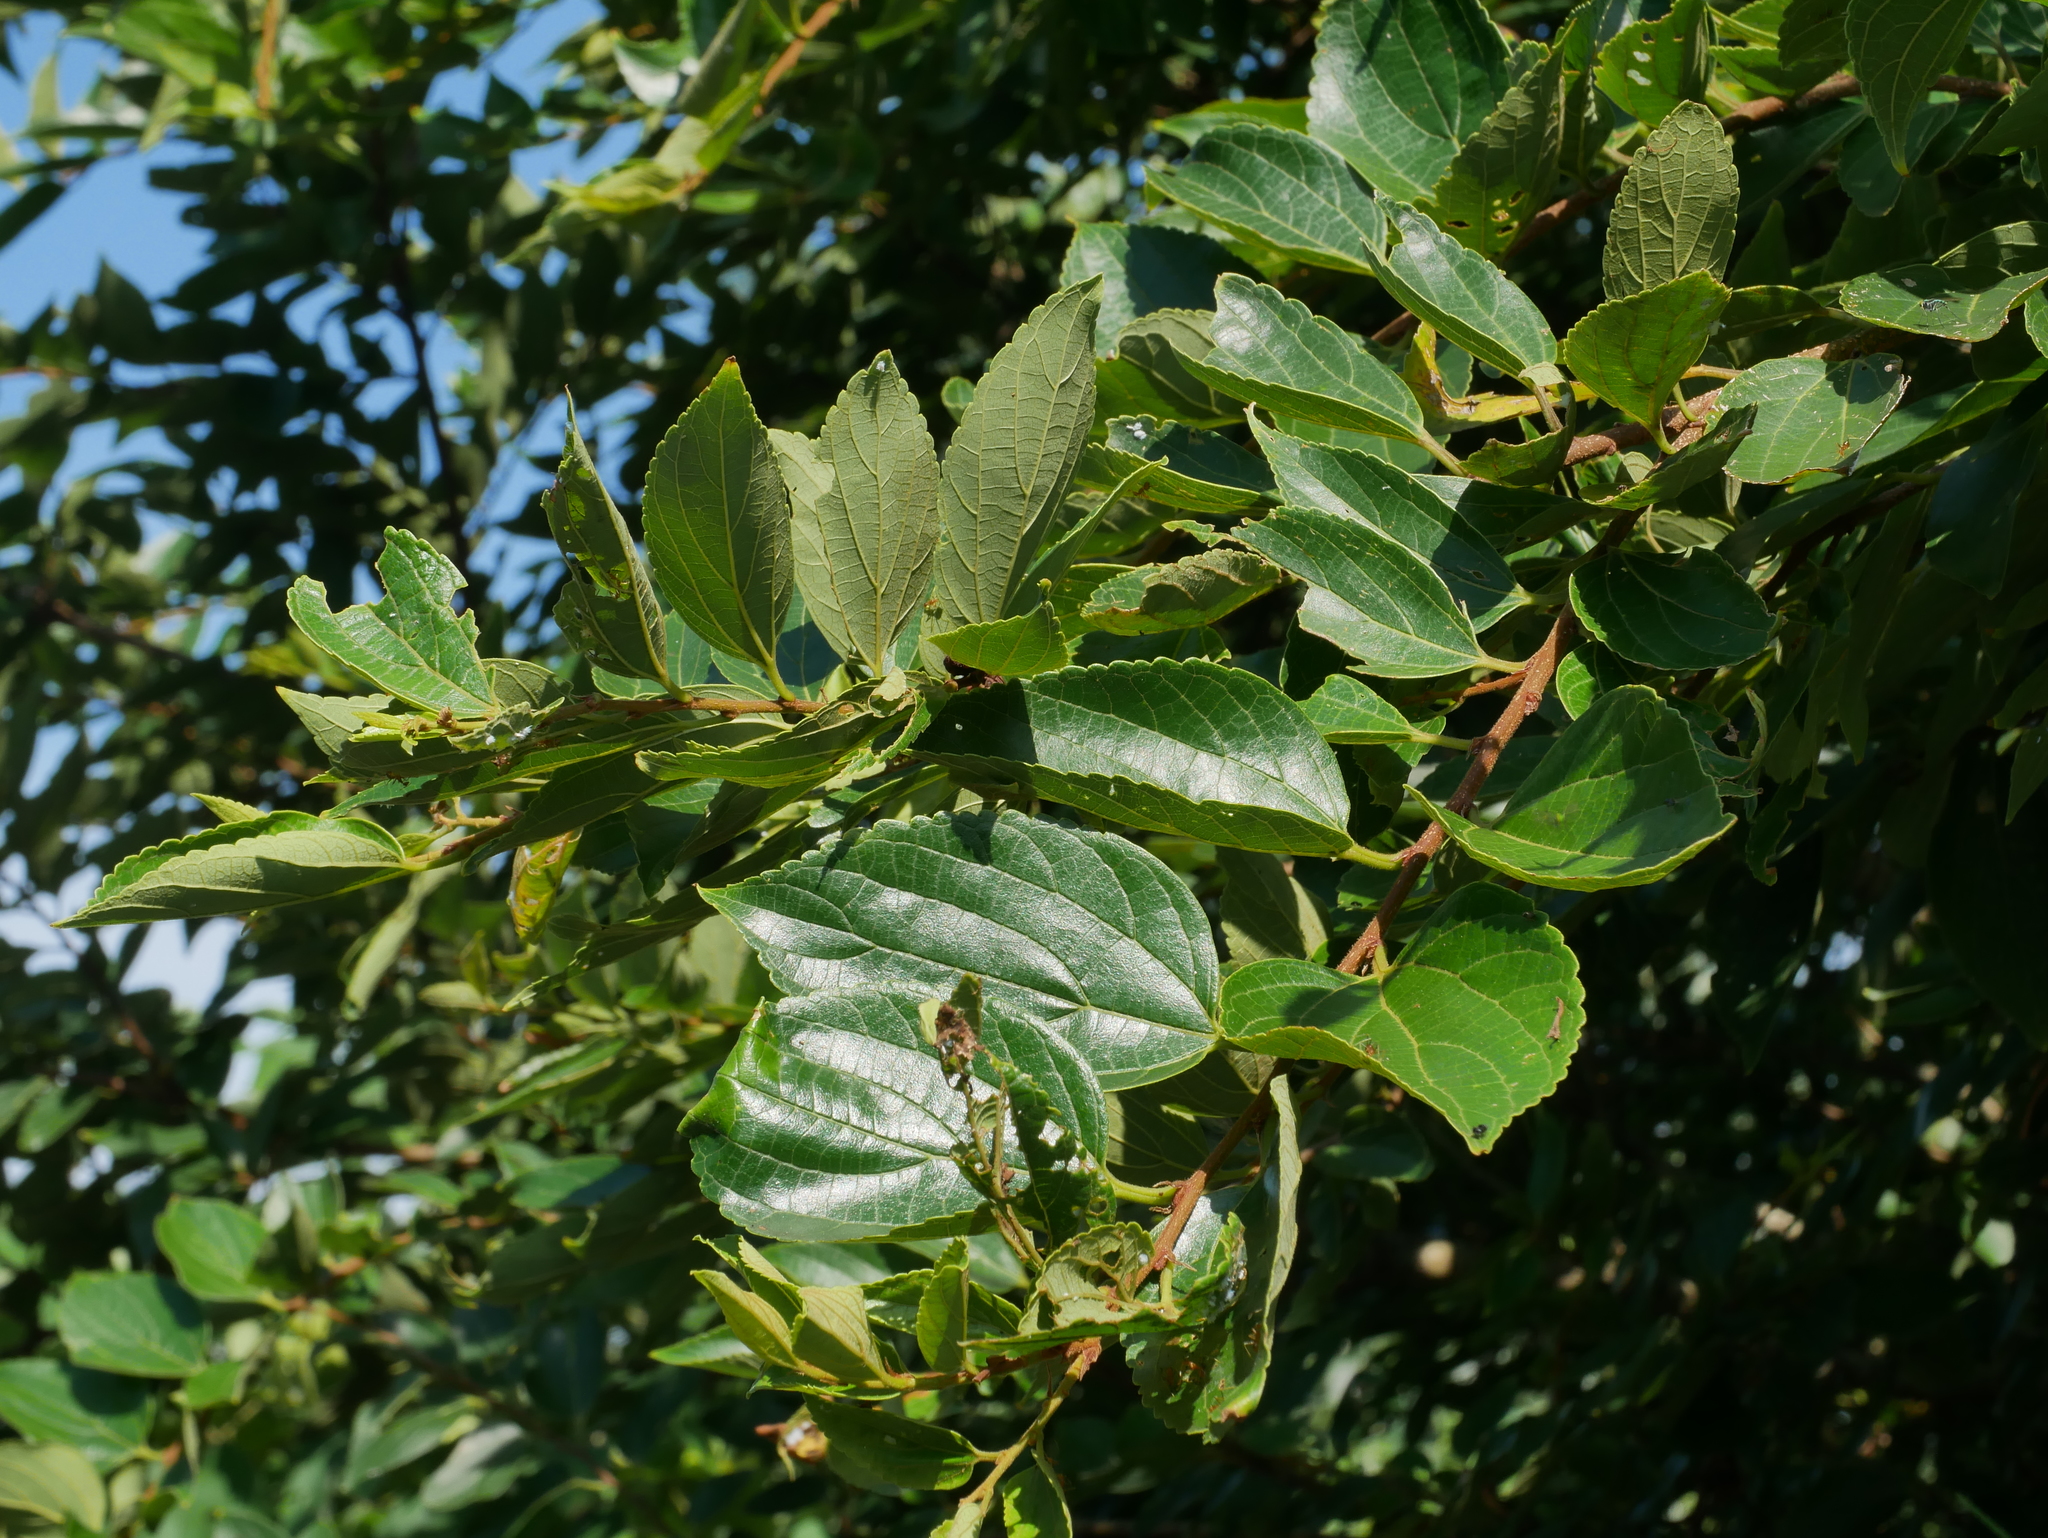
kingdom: Plantae
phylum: Tracheophyta
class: Magnoliopsida
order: Rosales
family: Cannabaceae
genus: Celtis
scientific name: Celtis sinensis
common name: Chinese hackberry
